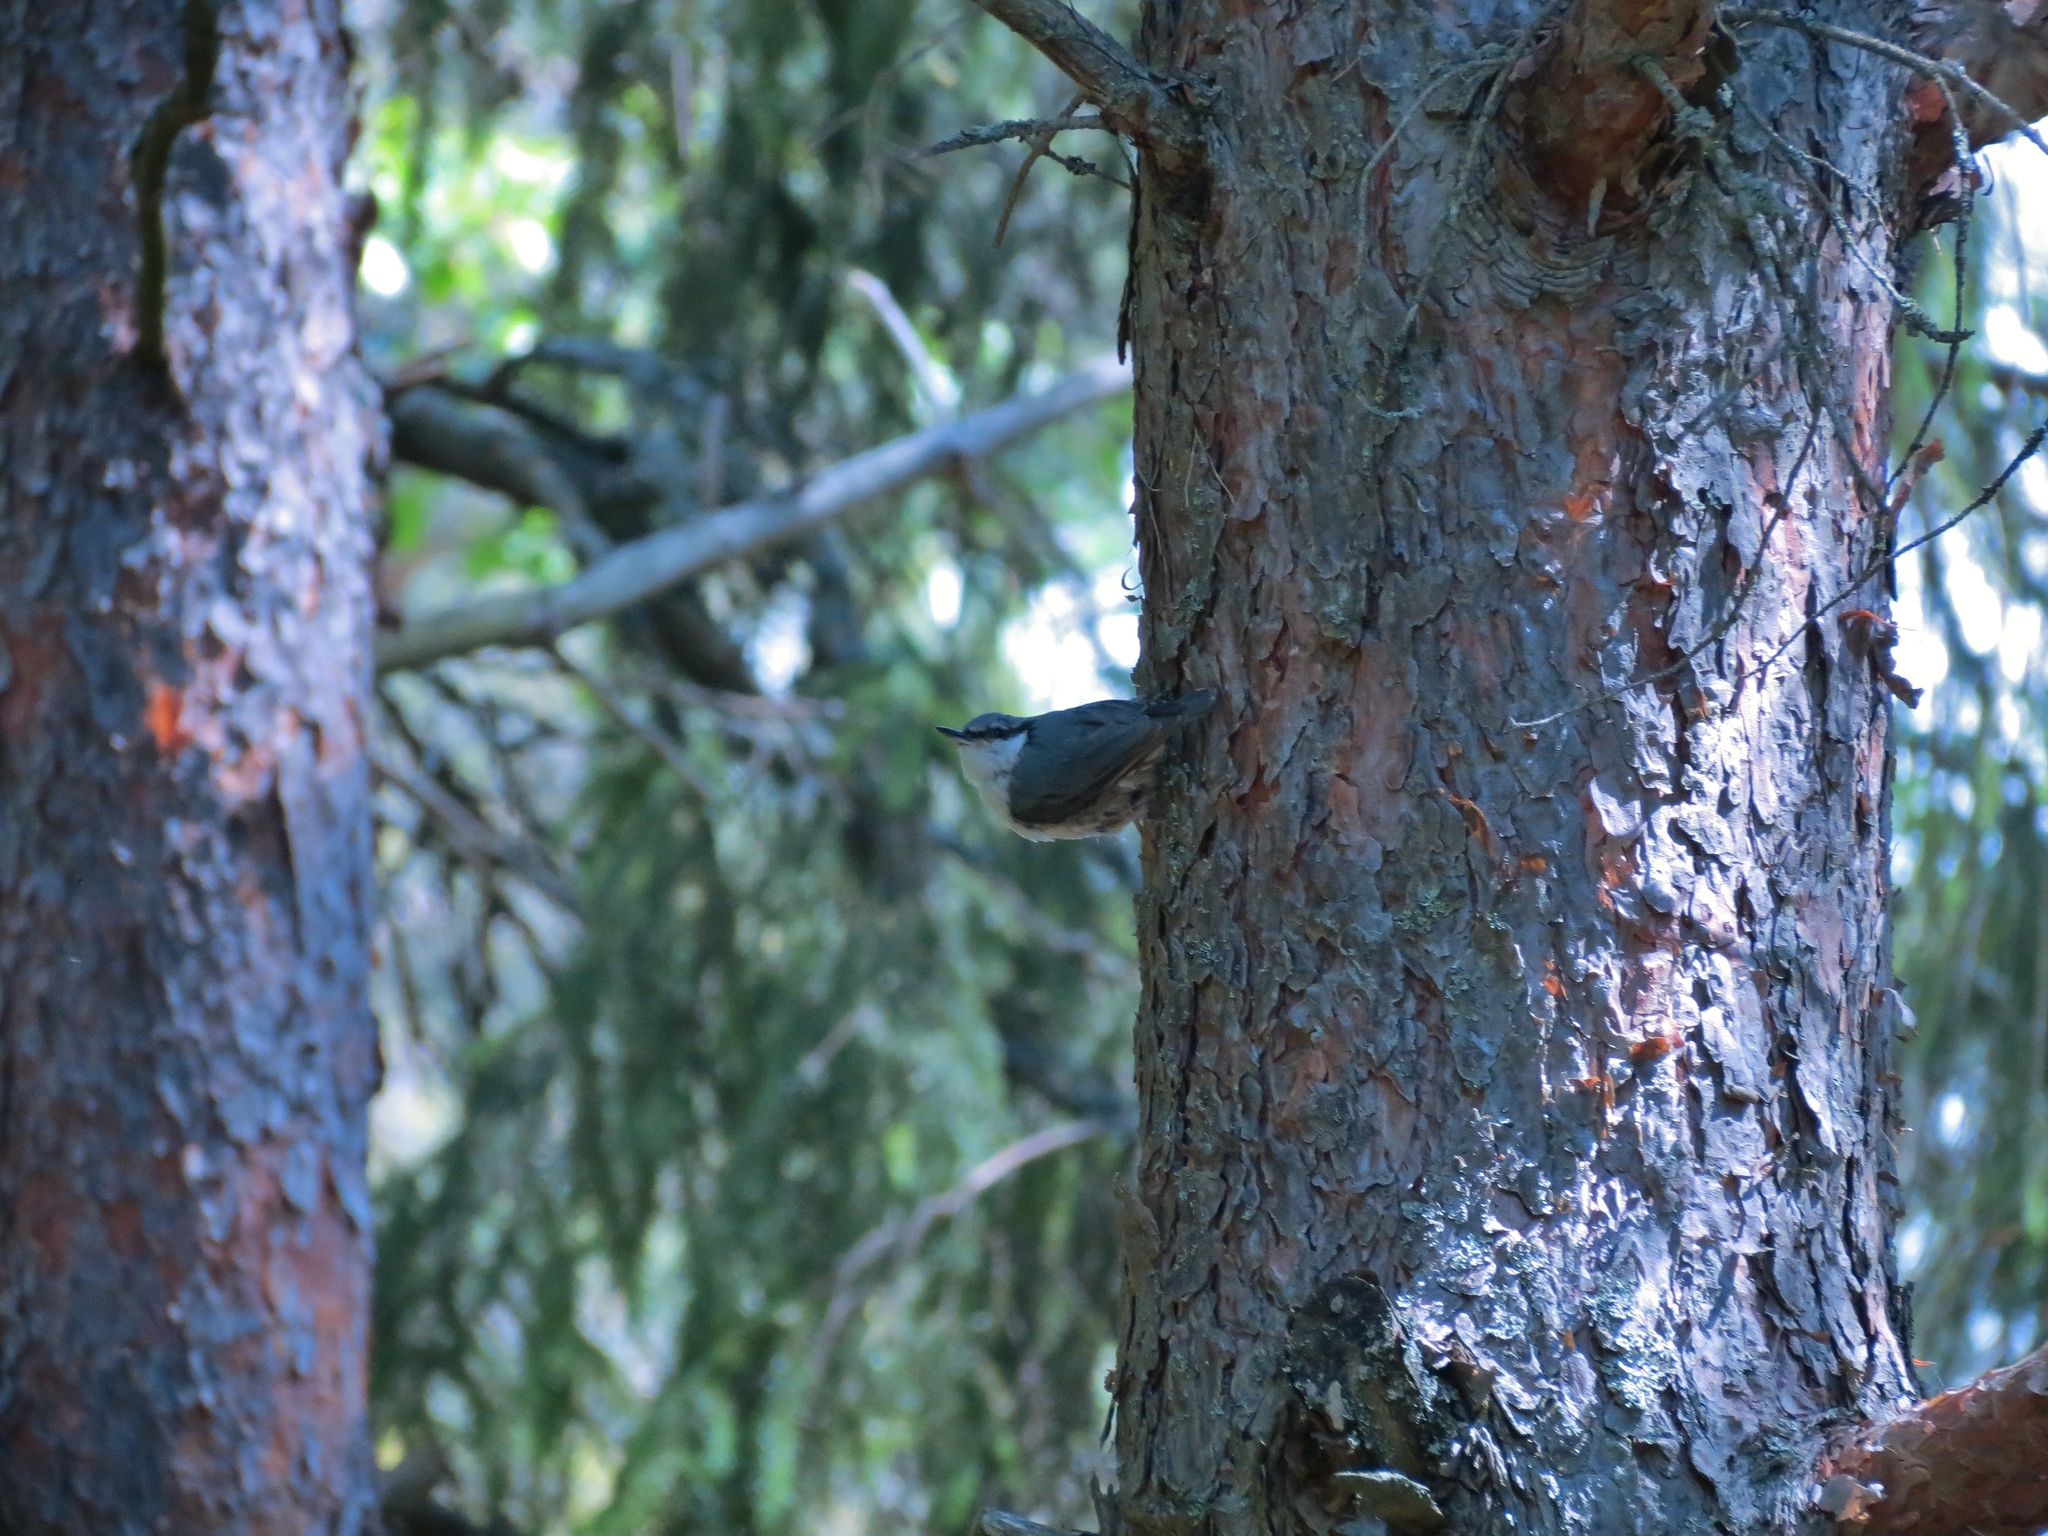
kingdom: Animalia
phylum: Chordata
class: Aves
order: Passeriformes
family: Sittidae
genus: Sitta
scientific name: Sitta europaea
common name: Eurasian nuthatch
